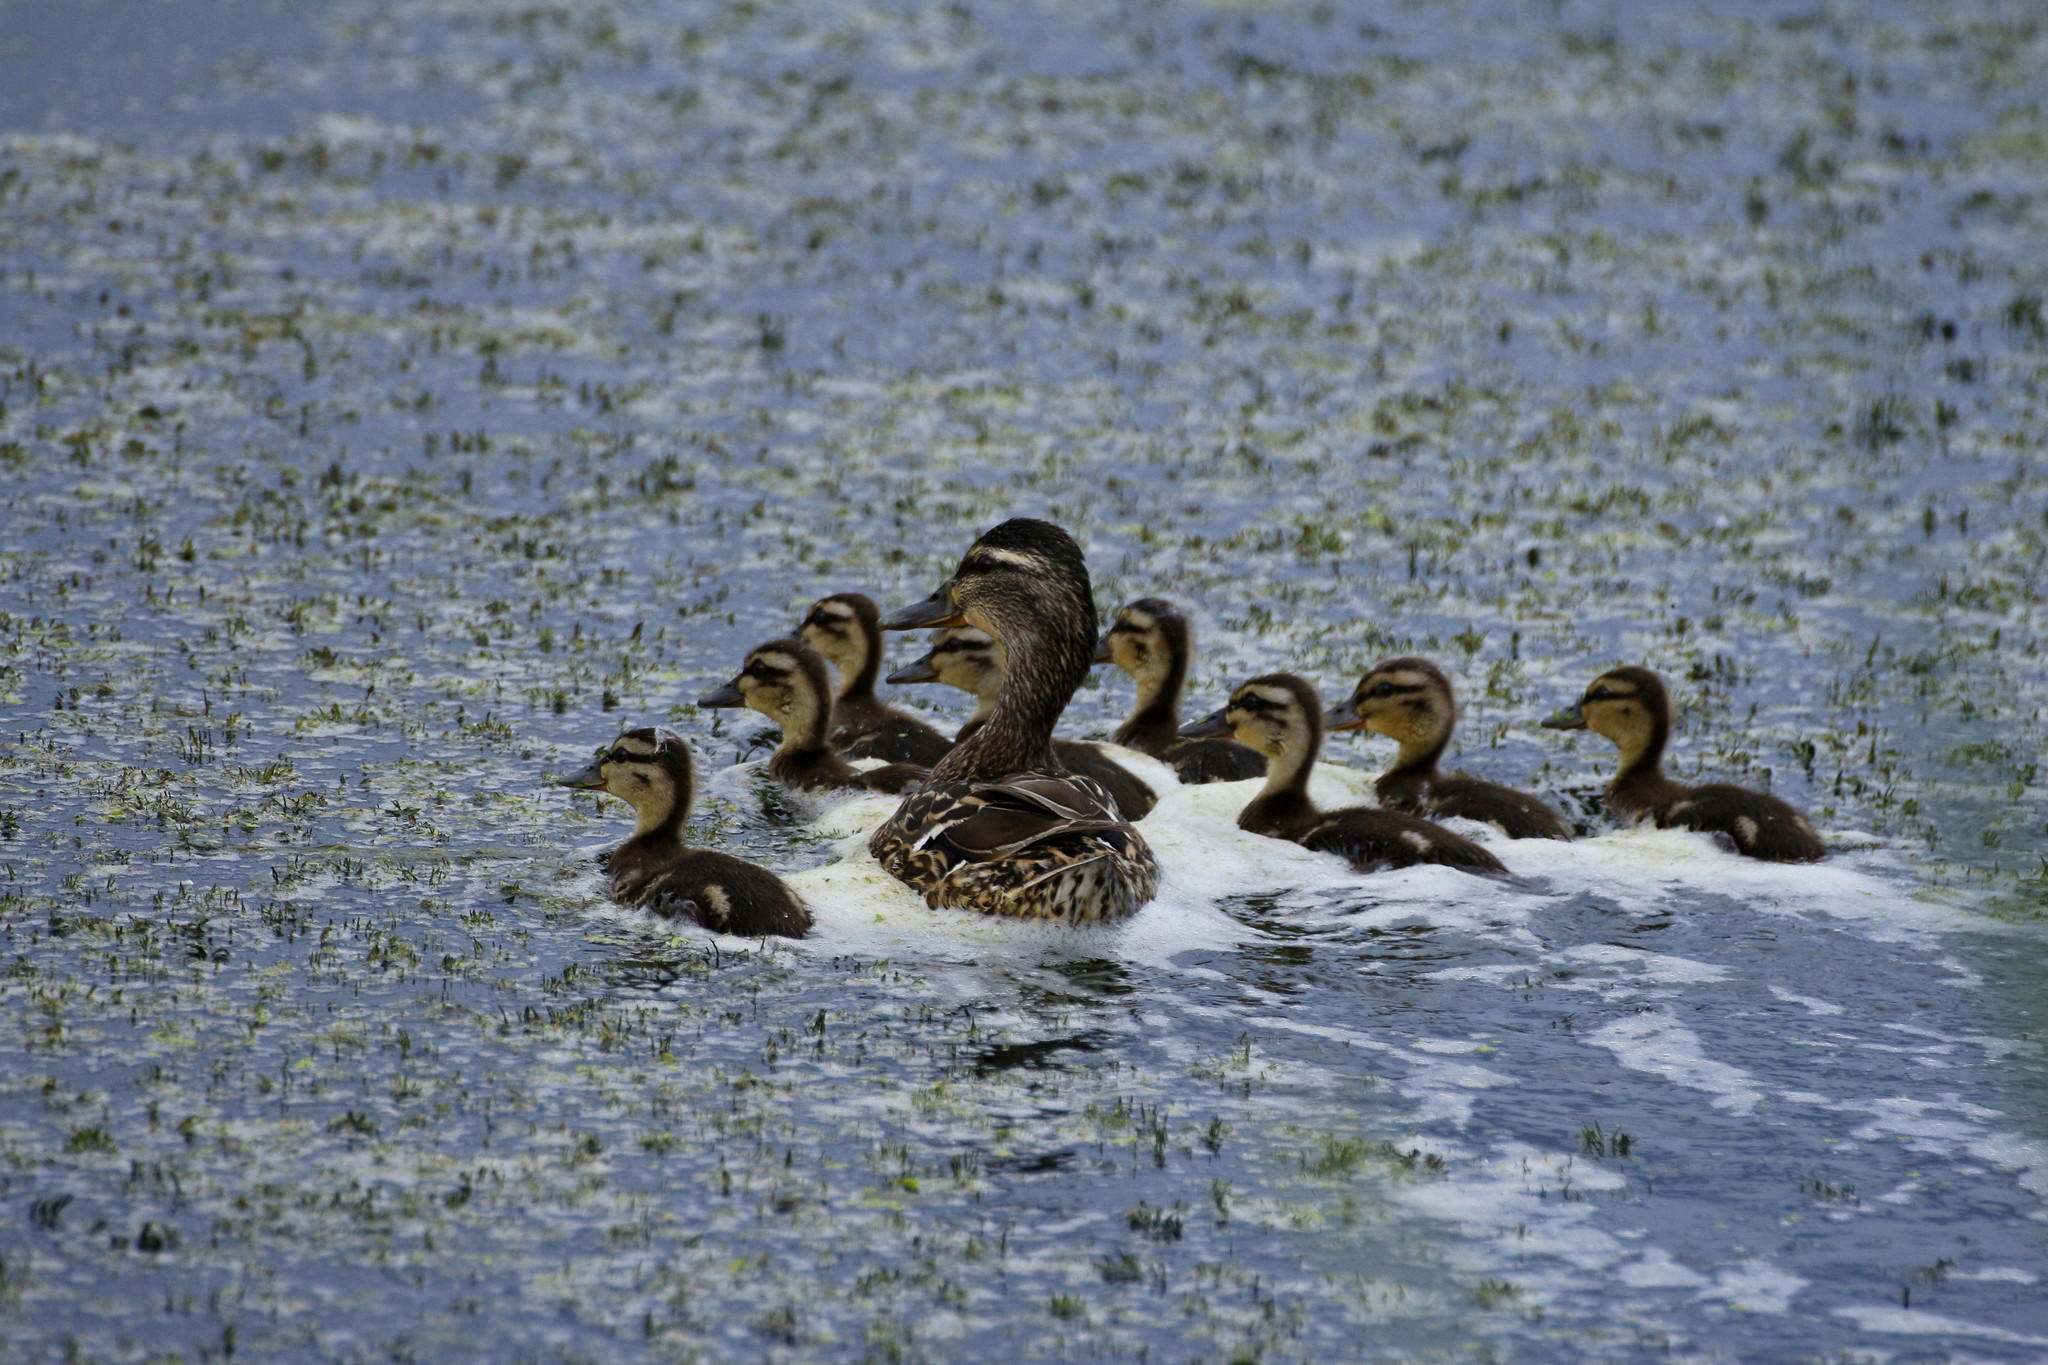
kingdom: Animalia
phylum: Chordata
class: Aves
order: Anseriformes
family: Anatidae
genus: Anas
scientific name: Anas platyrhynchos
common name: Mallard
